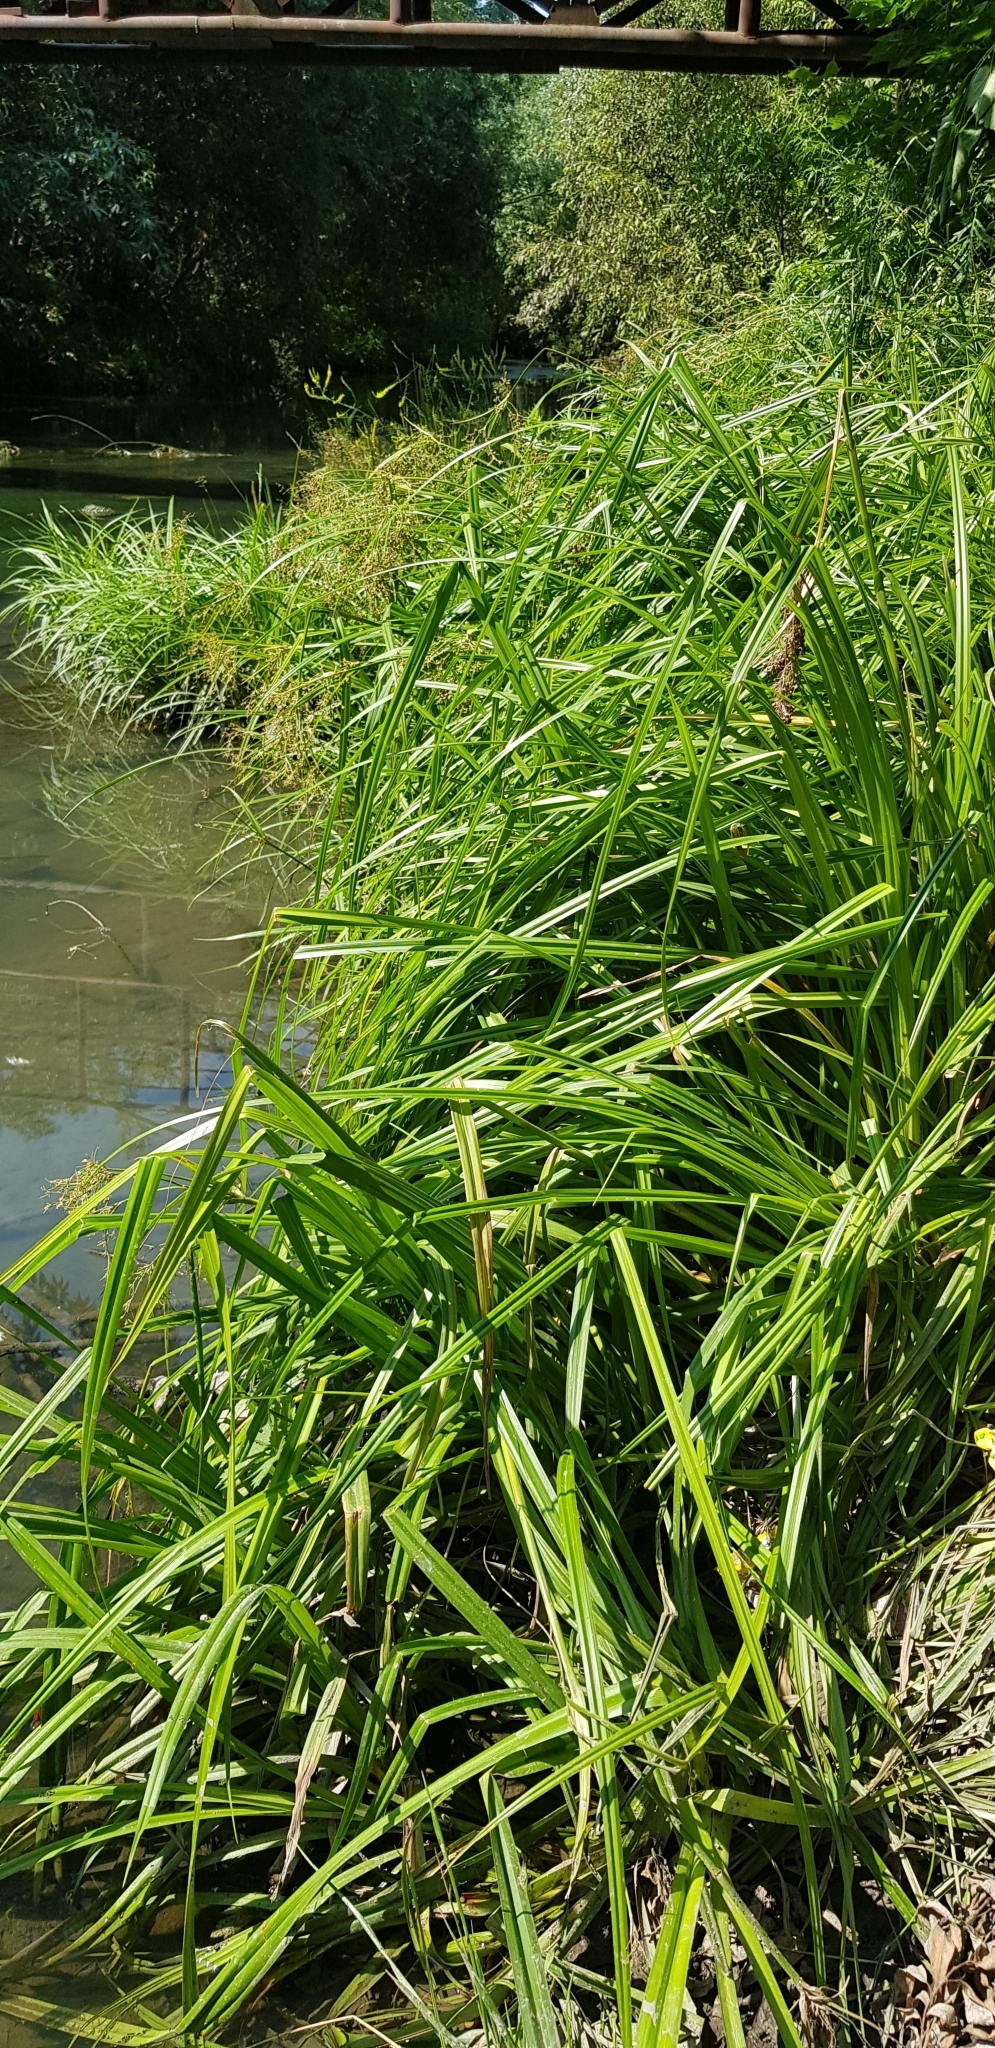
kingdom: Plantae
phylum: Tracheophyta
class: Liliopsida
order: Poales
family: Cyperaceae
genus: Scirpus
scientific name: Scirpus sylvaticus
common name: Wood club-rush
